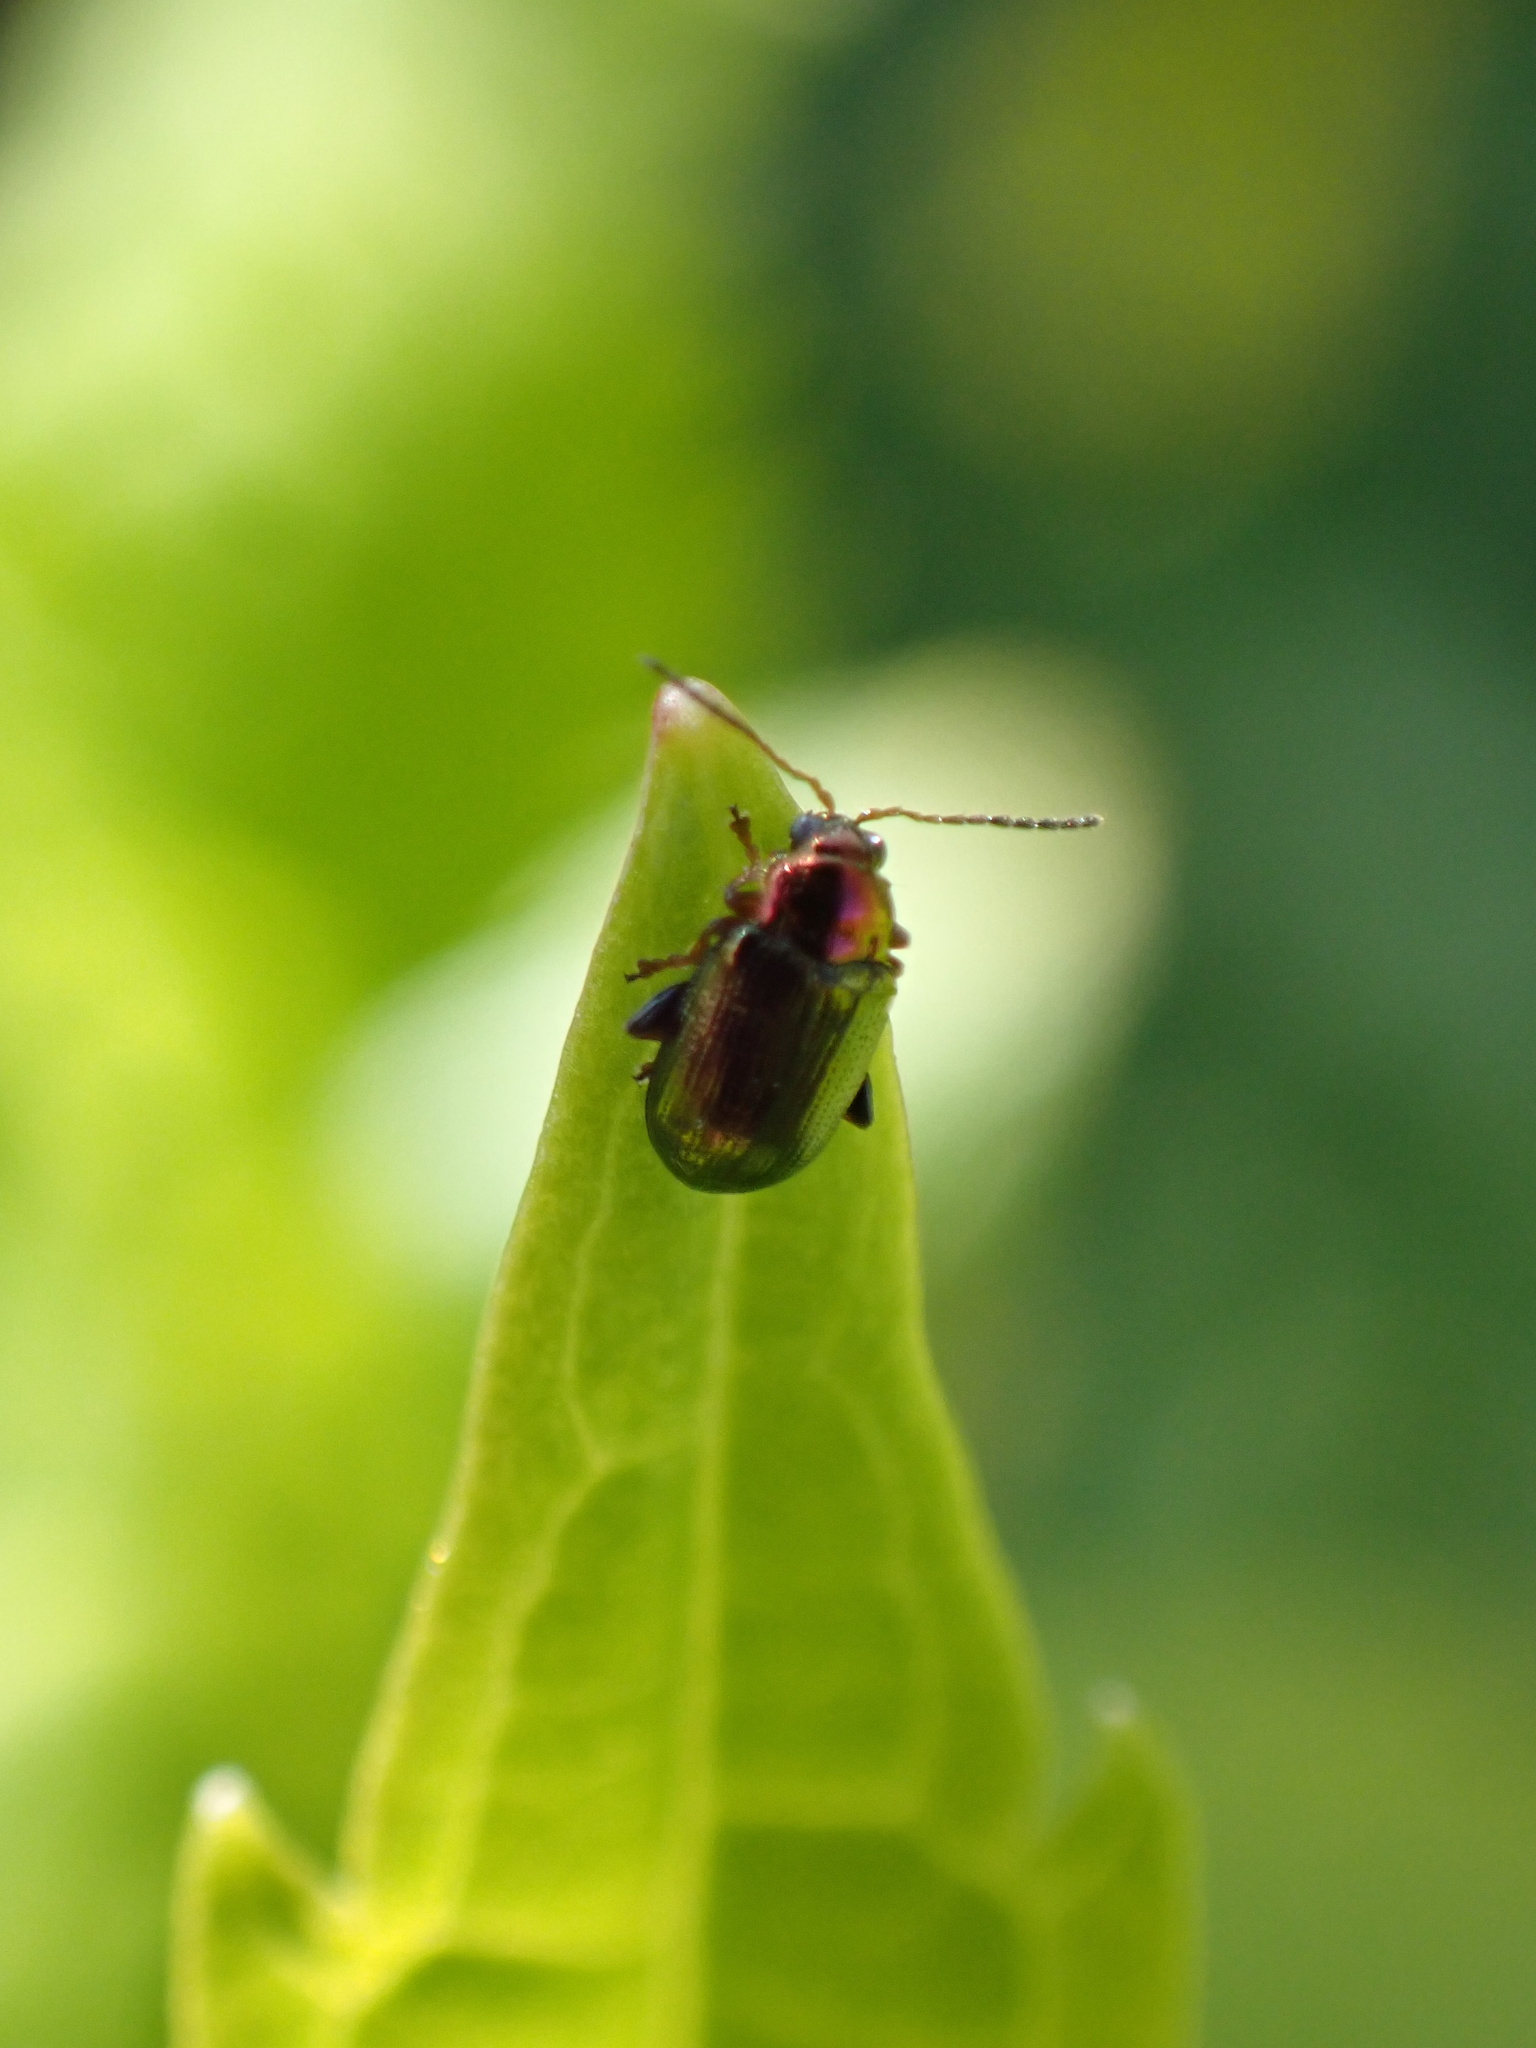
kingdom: Animalia
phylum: Arthropoda
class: Insecta
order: Coleoptera
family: Chrysomelidae
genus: Crepidodera
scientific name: Crepidodera aurata
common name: Willow flea beetle
